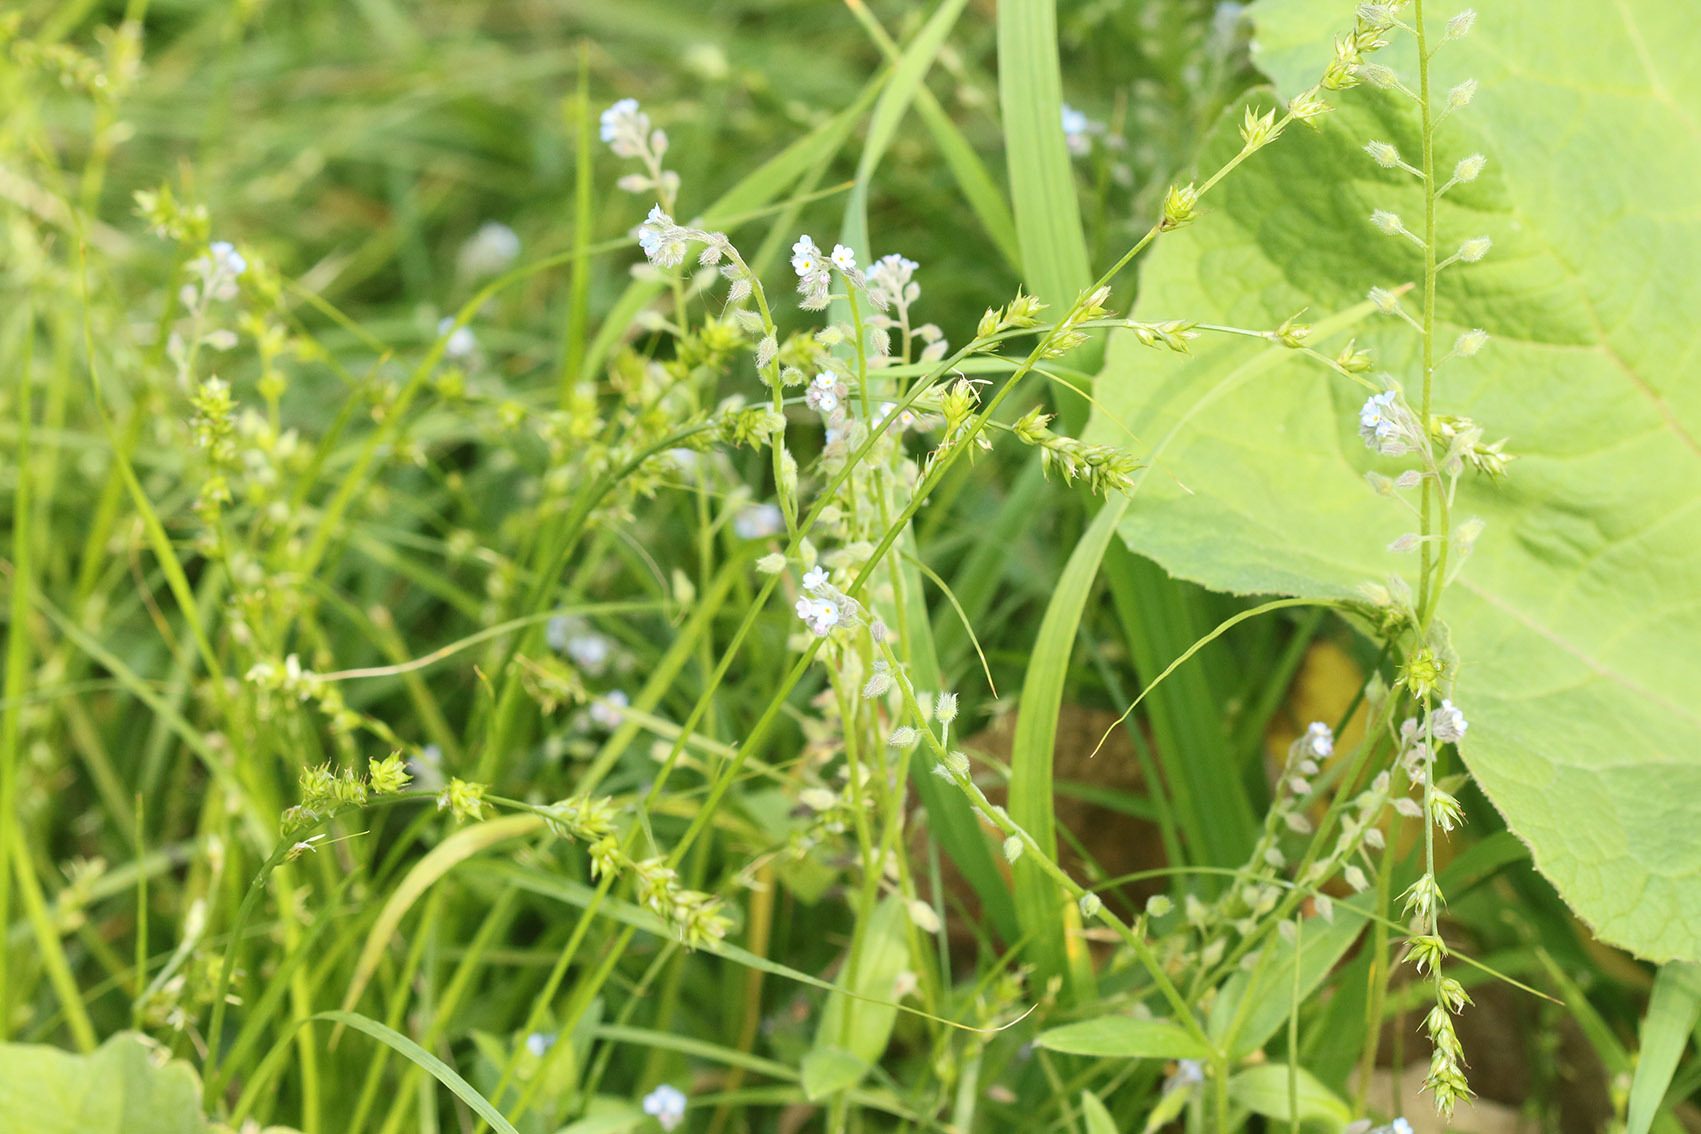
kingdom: Plantae
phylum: Tracheophyta
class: Magnoliopsida
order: Boraginales
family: Boraginaceae
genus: Myosotis
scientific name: Myosotis arvensis
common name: Field forget-me-not
